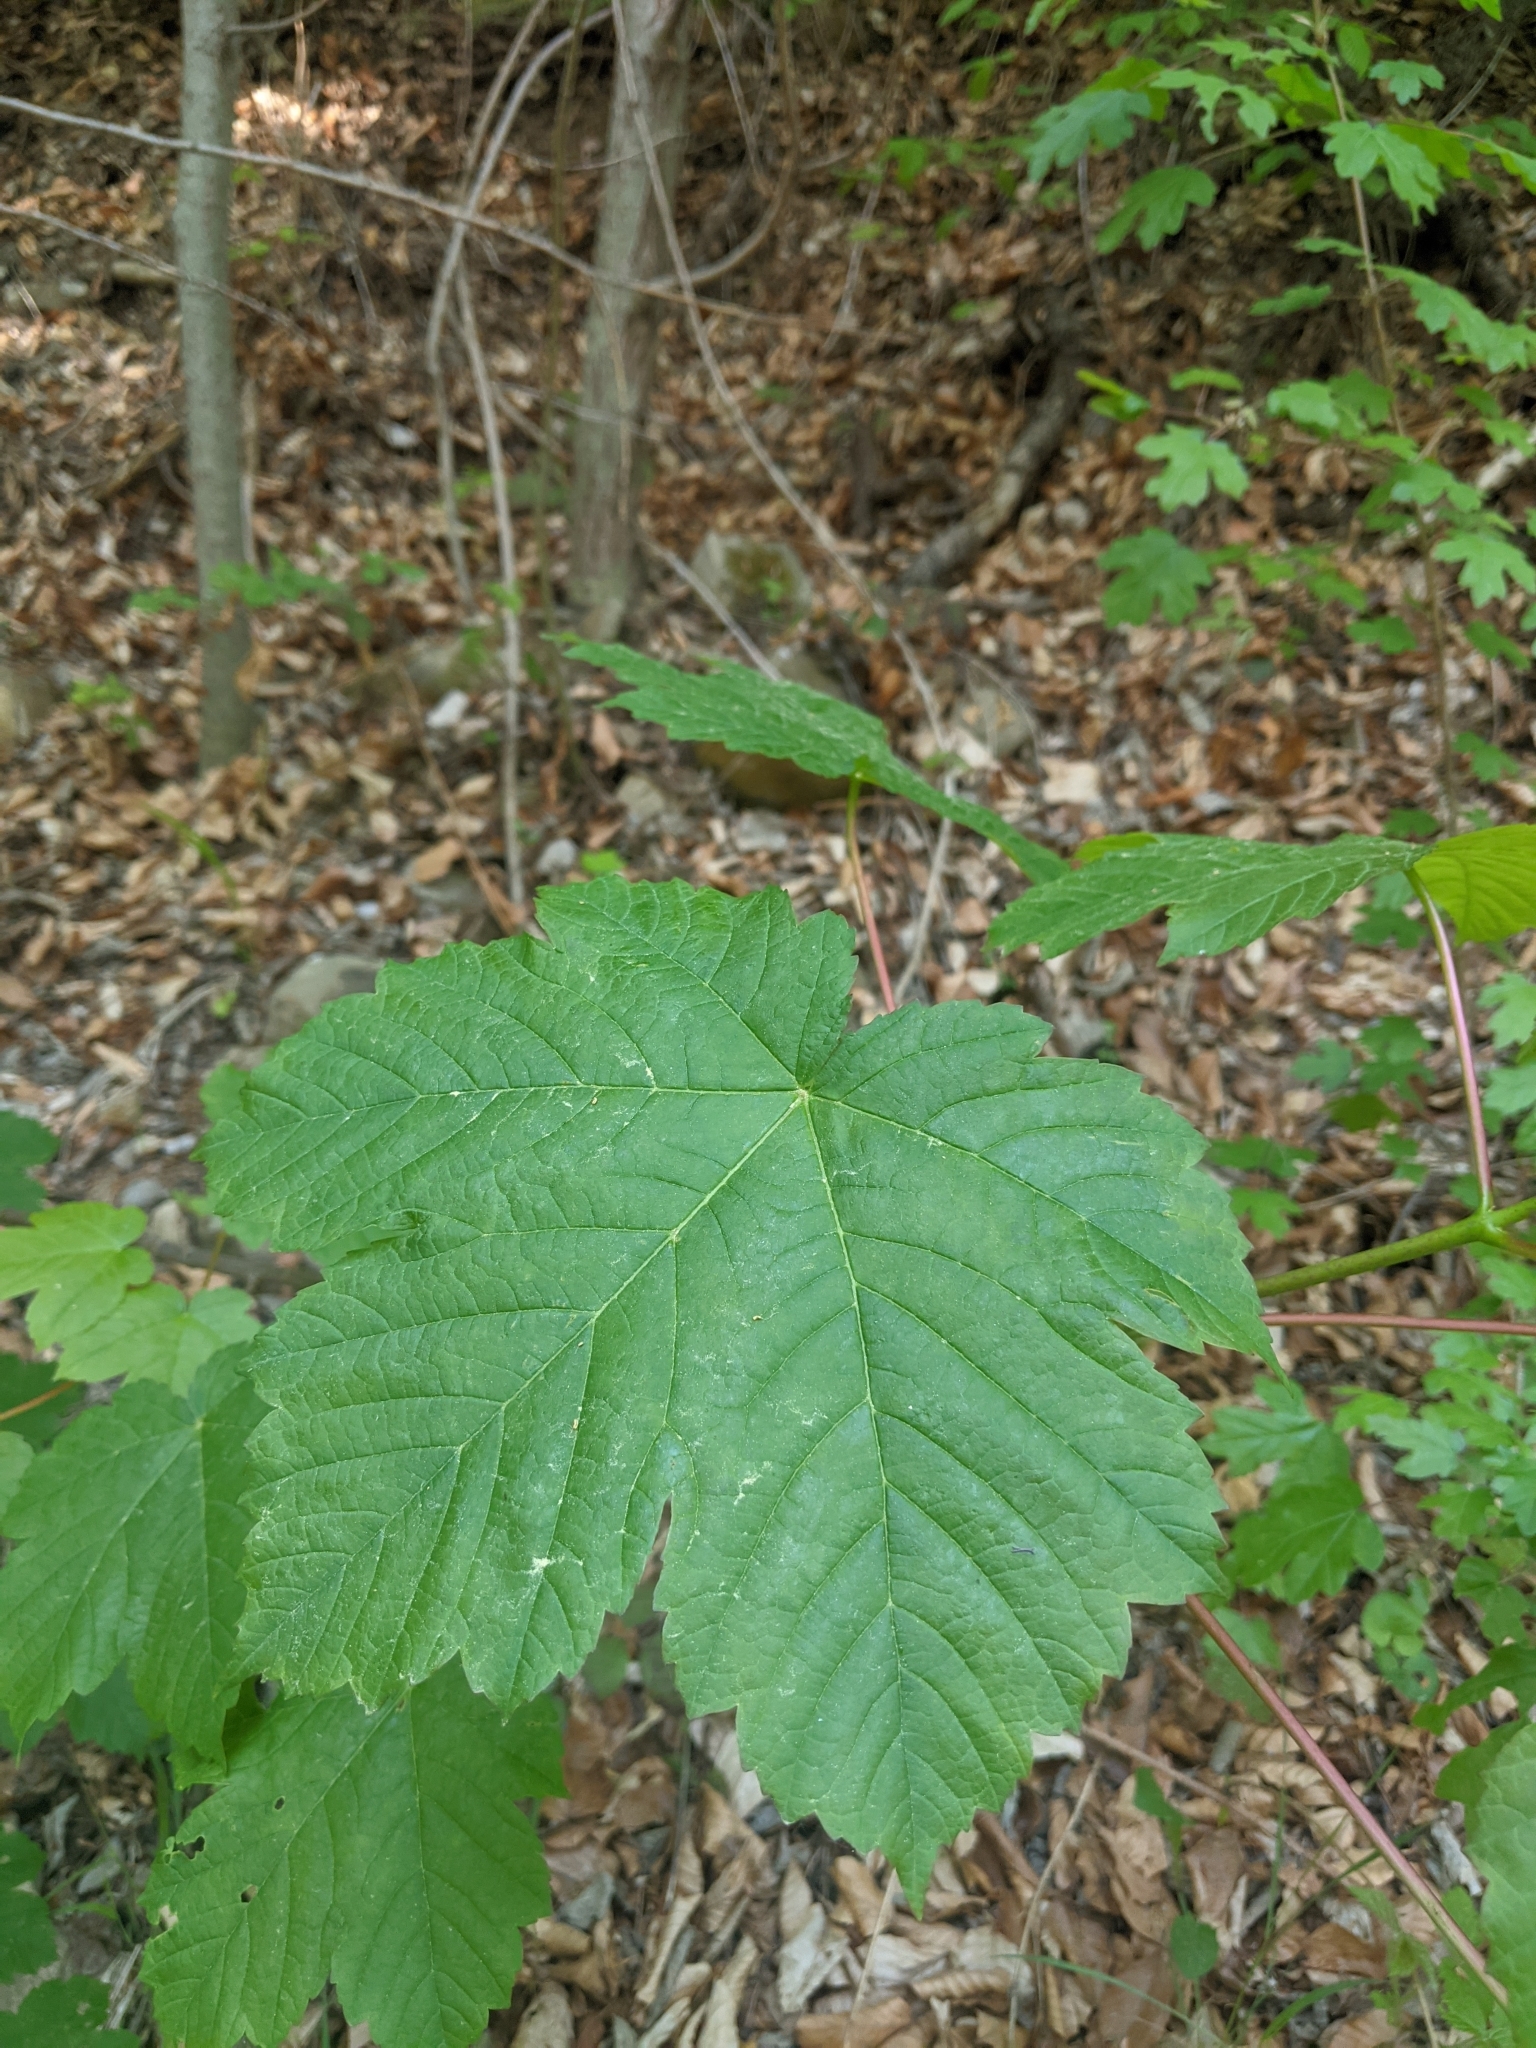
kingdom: Plantae
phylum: Tracheophyta
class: Magnoliopsida
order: Sapindales
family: Sapindaceae
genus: Acer
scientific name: Acer pseudoplatanus
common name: Sycamore
